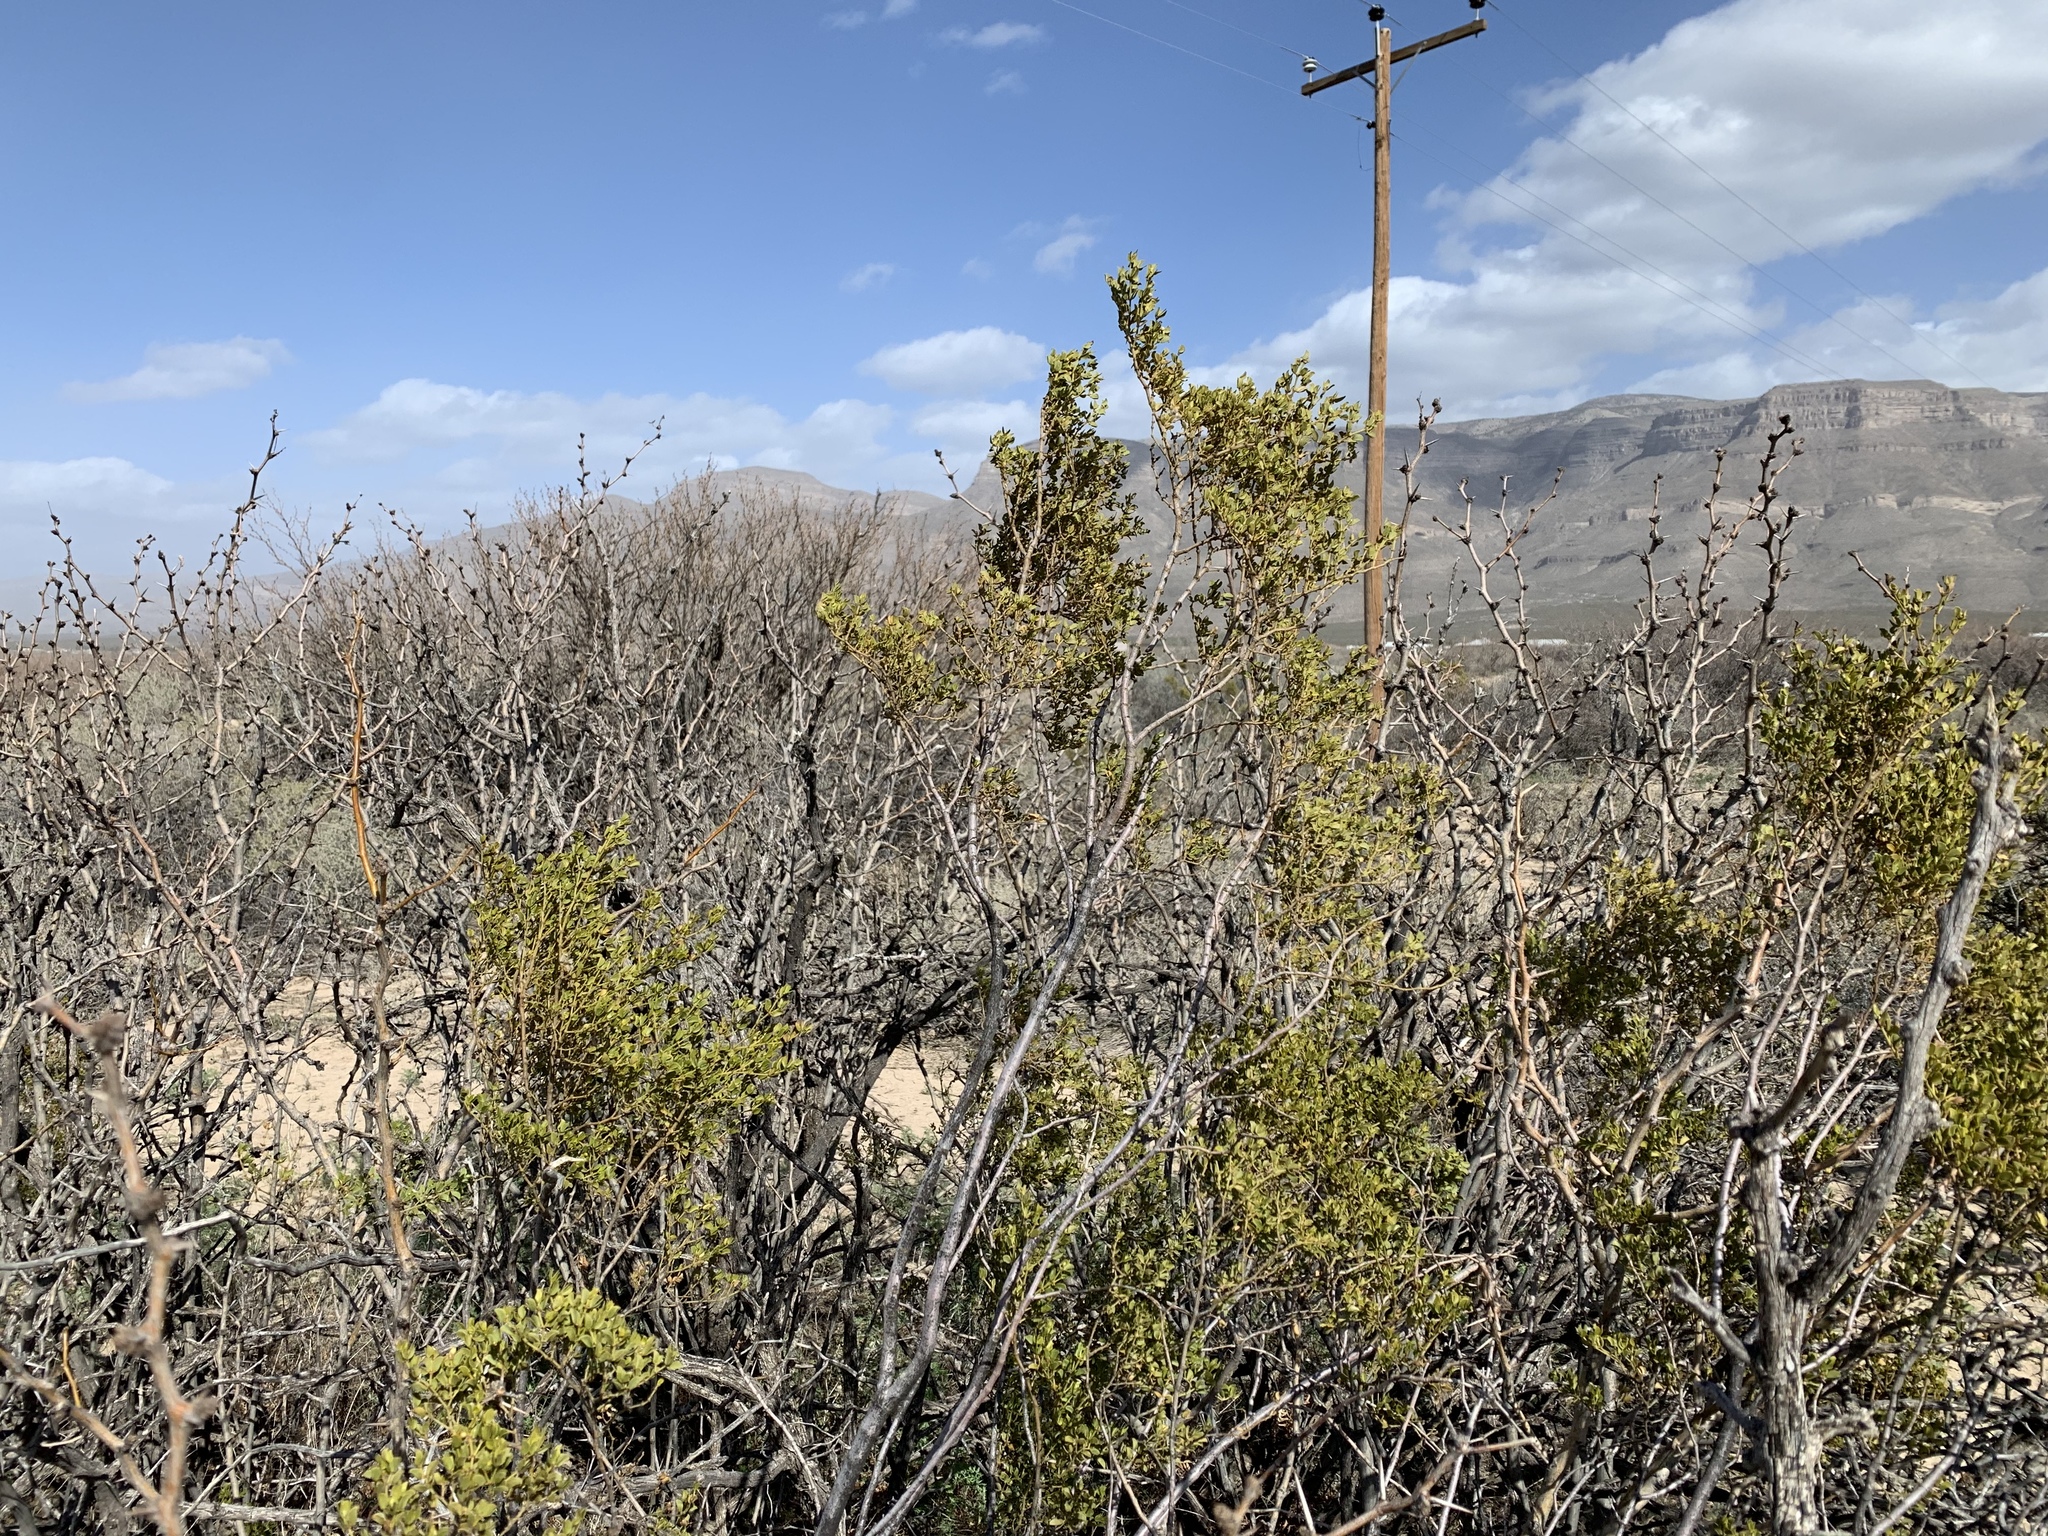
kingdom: Plantae
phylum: Tracheophyta
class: Magnoliopsida
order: Zygophyllales
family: Zygophyllaceae
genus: Larrea
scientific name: Larrea tridentata
